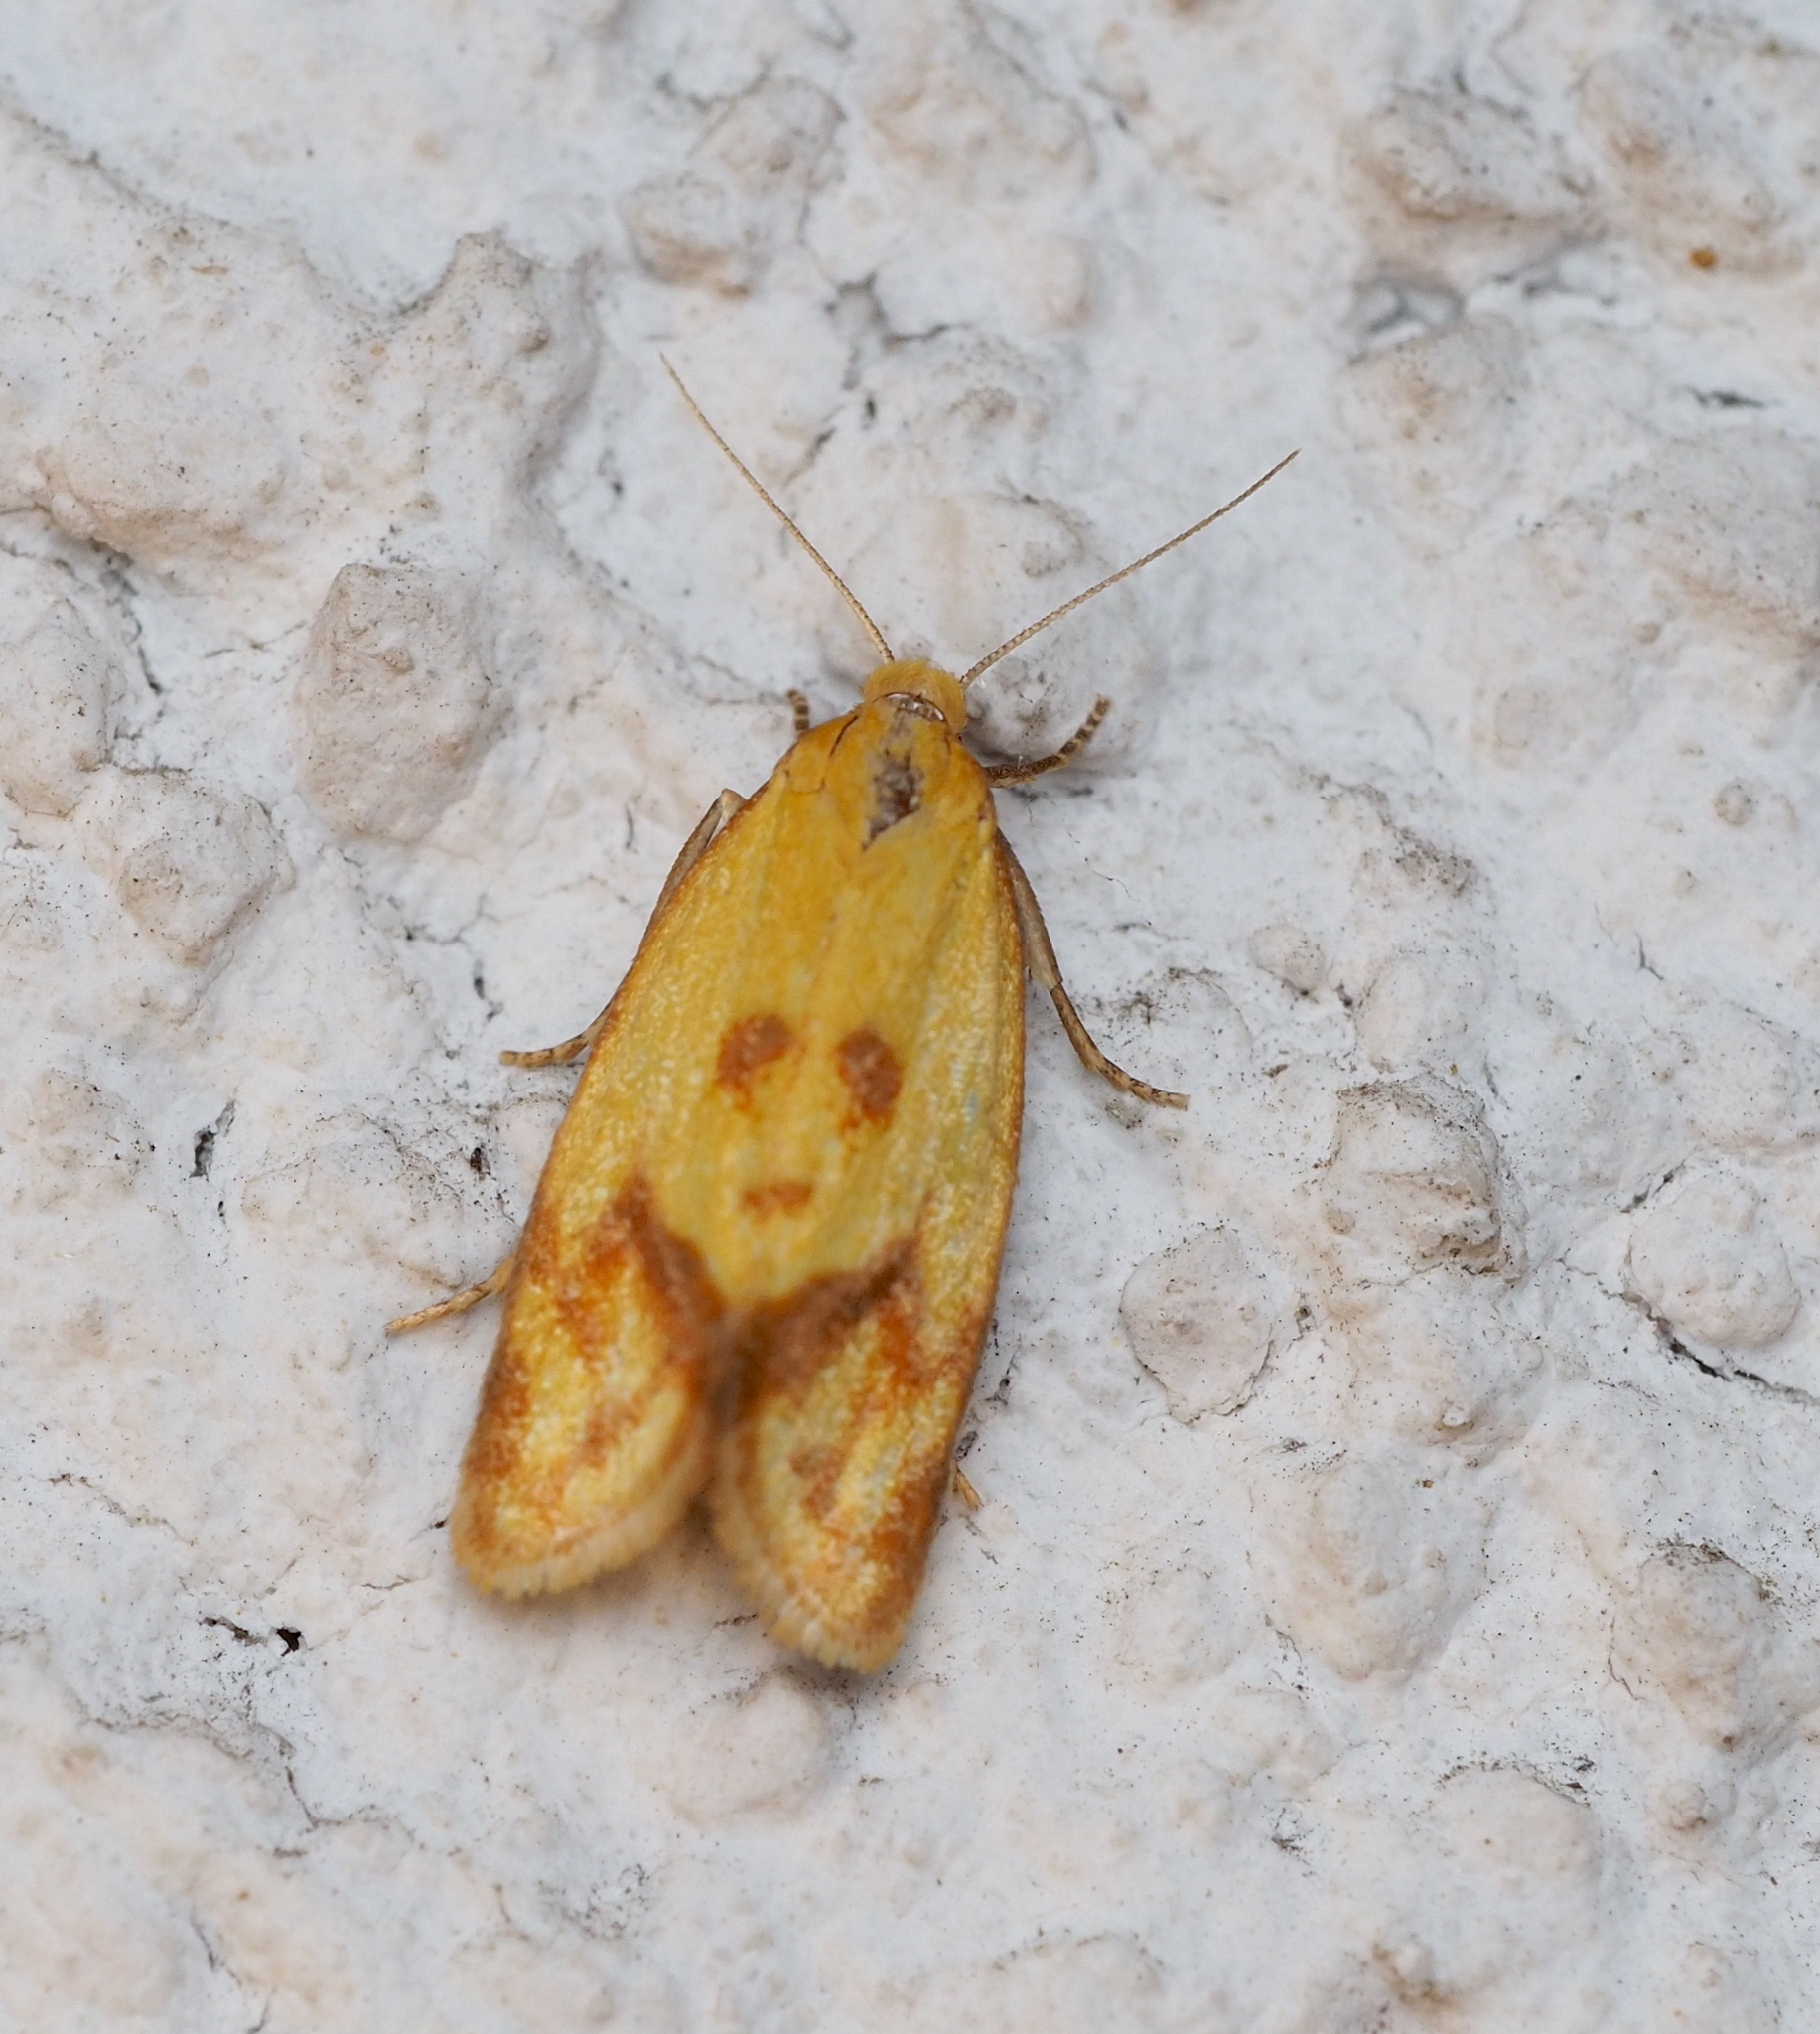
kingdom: Animalia
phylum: Arthropoda
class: Insecta
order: Lepidoptera
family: Tortricidae
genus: Agapeta
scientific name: Agapeta hamana
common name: Common yellow conch
